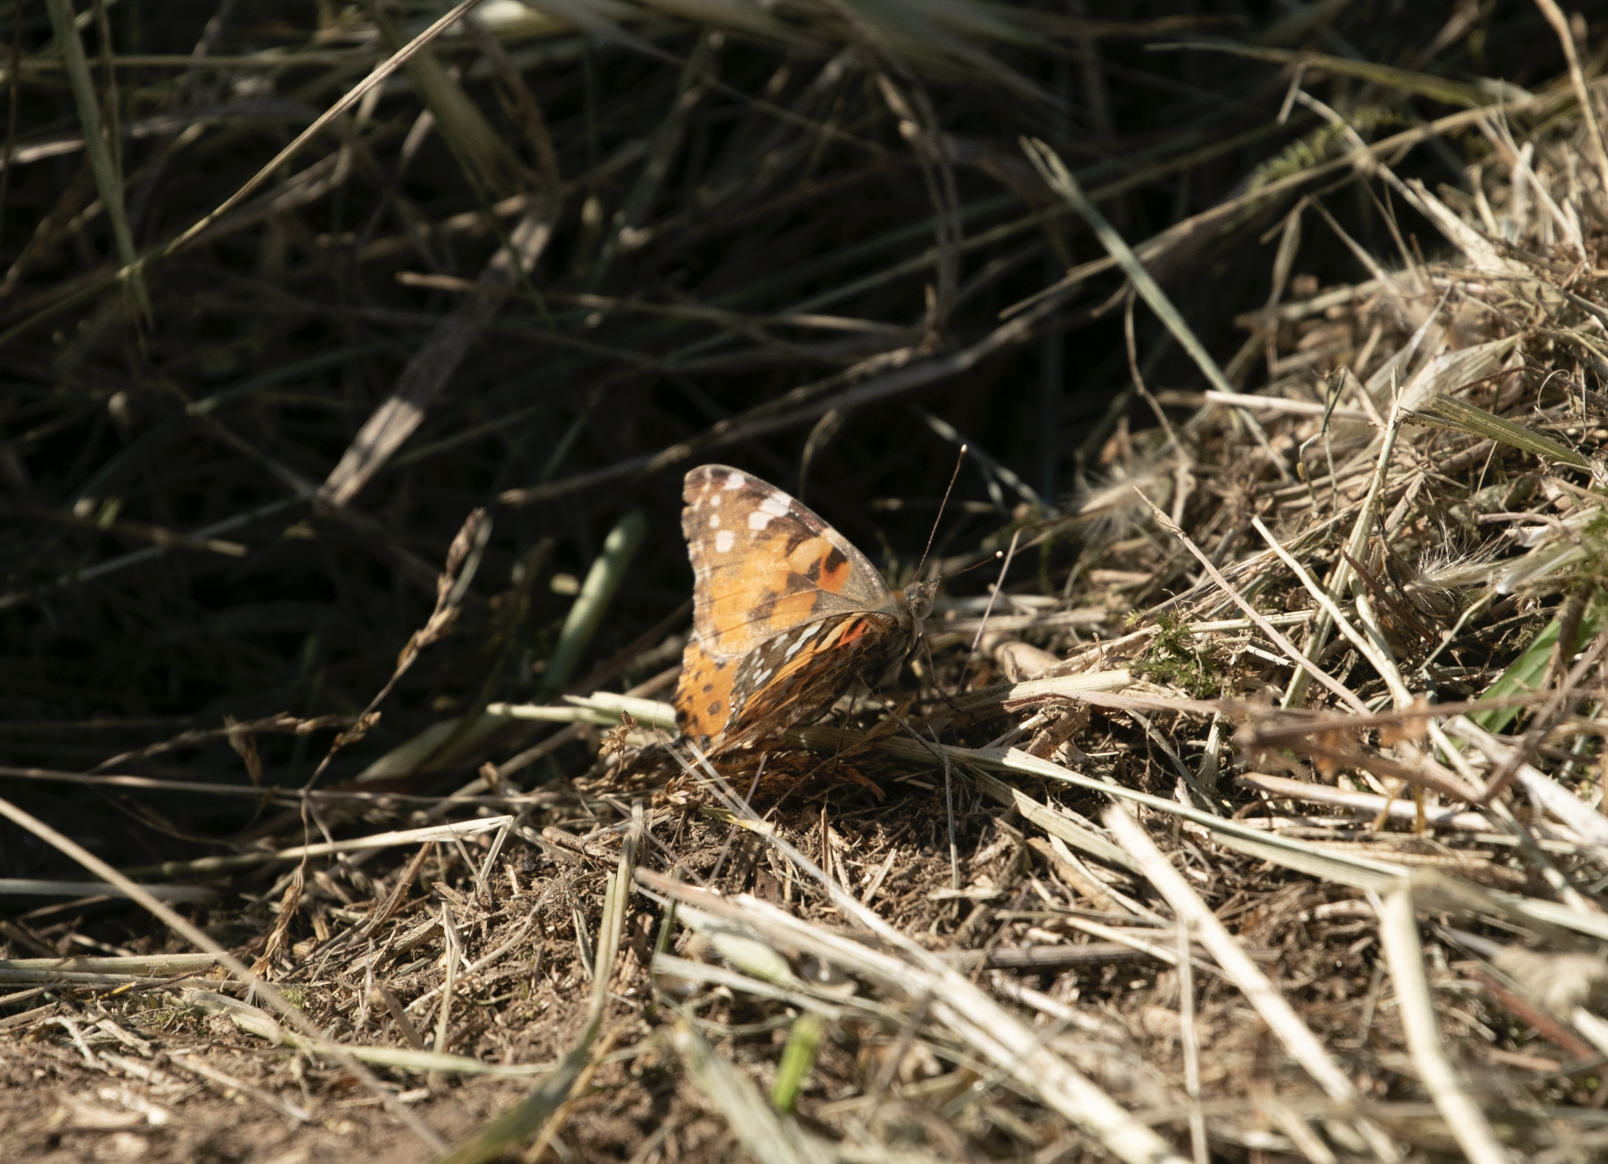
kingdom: Animalia
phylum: Arthropoda
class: Insecta
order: Lepidoptera
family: Nymphalidae
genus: Vanessa
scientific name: Vanessa cardui
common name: Painted lady
